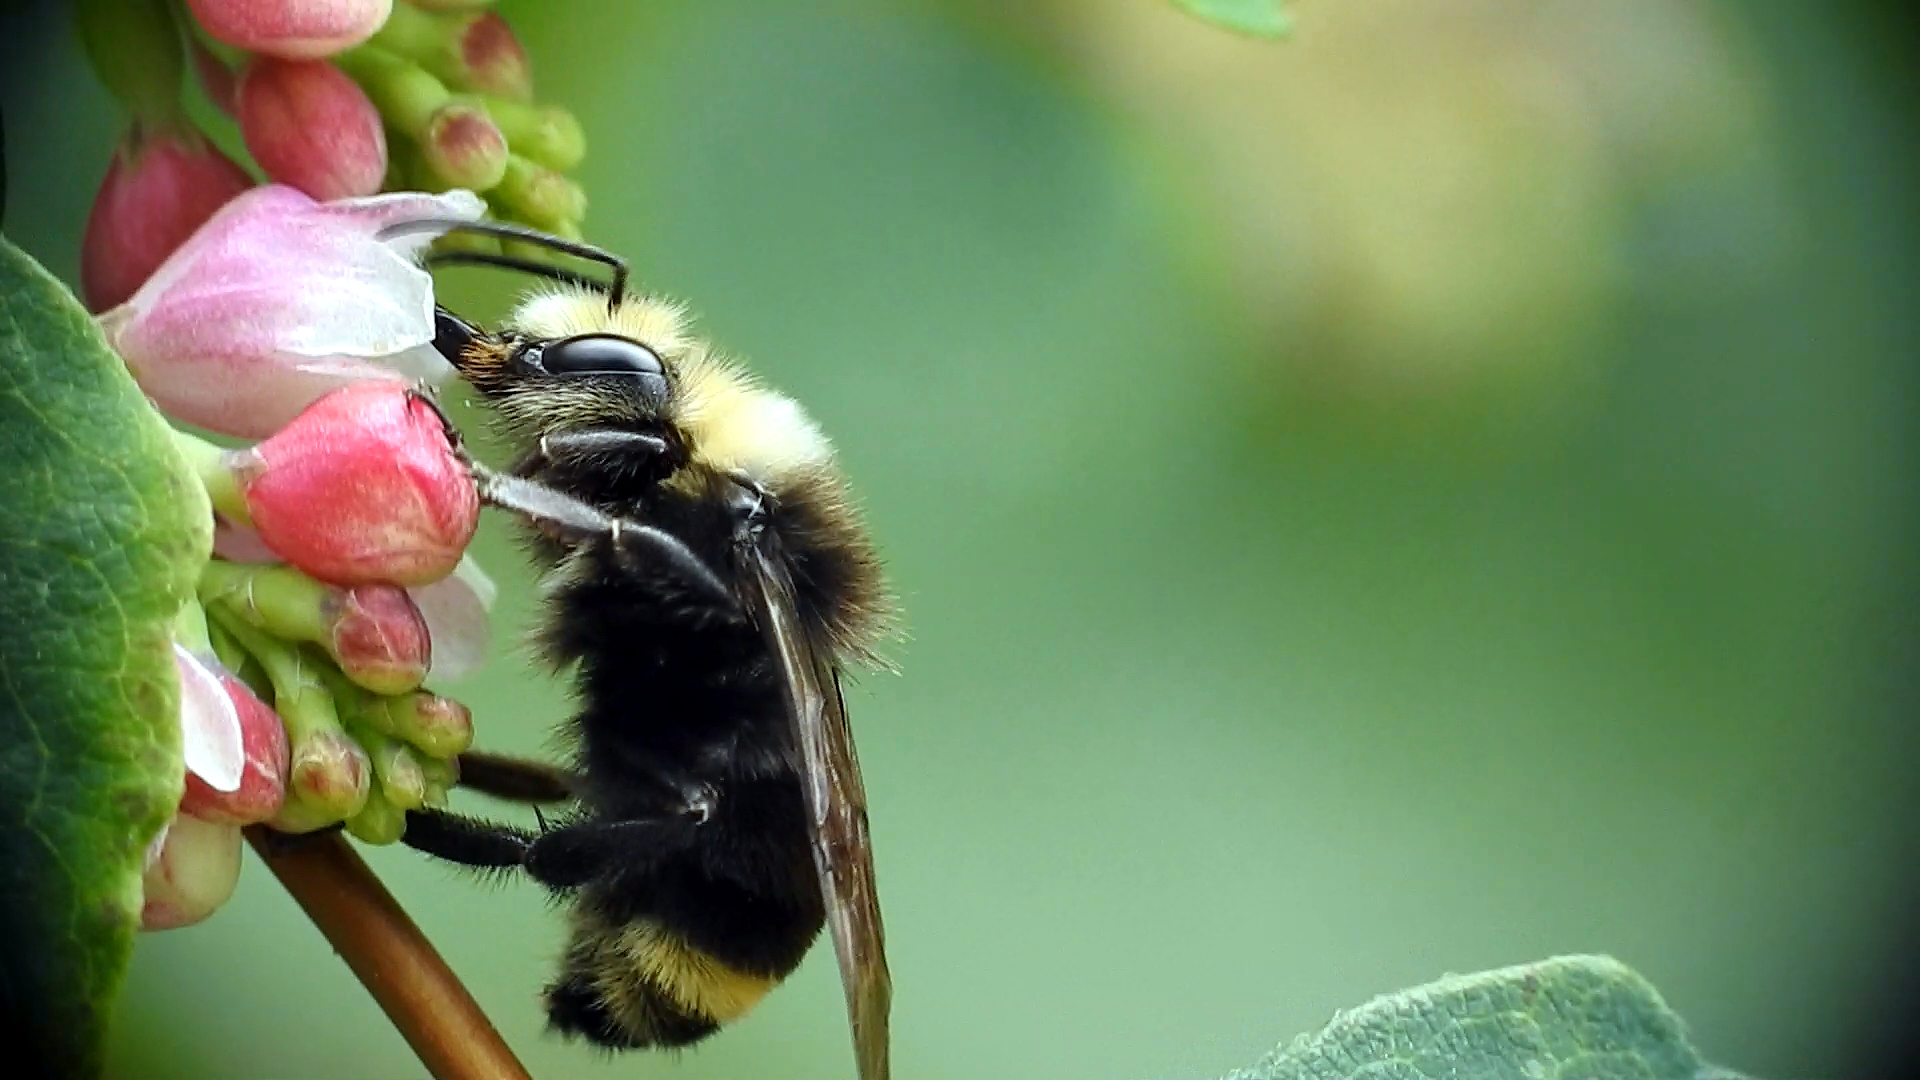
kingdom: Animalia
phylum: Arthropoda
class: Insecta
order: Hymenoptera
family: Apidae
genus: Bombus
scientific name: Bombus vosnesenskii
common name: Vosnesensky bumble bee
